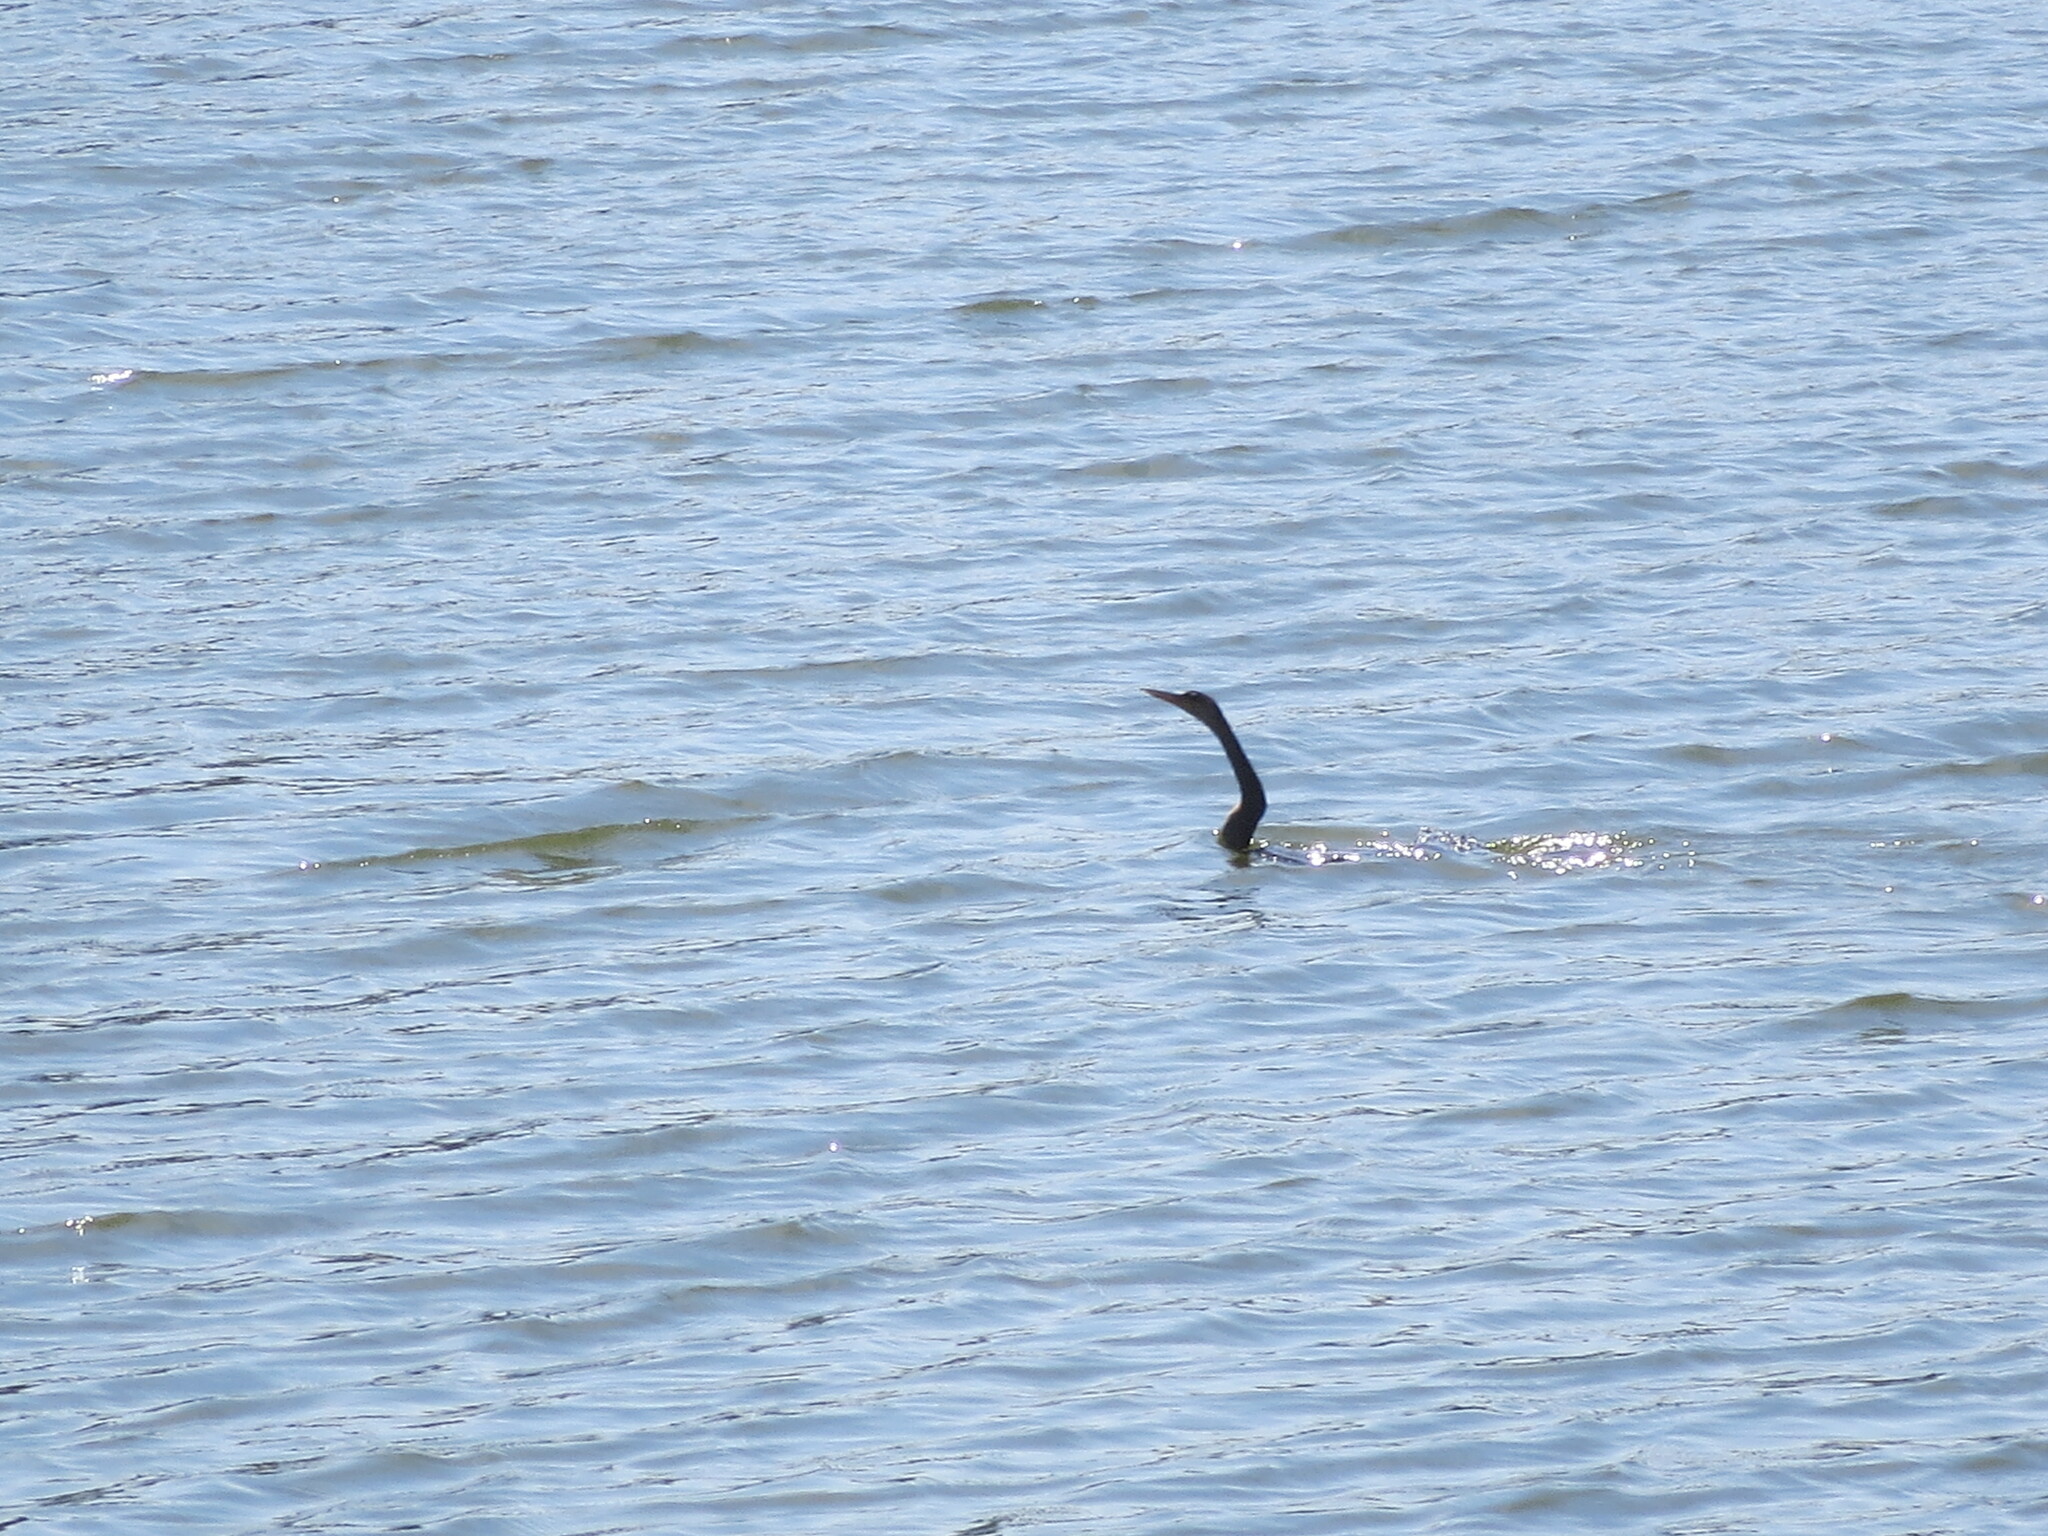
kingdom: Animalia
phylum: Chordata
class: Aves
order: Suliformes
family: Anhingidae
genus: Anhinga
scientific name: Anhinga anhinga
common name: Anhinga
